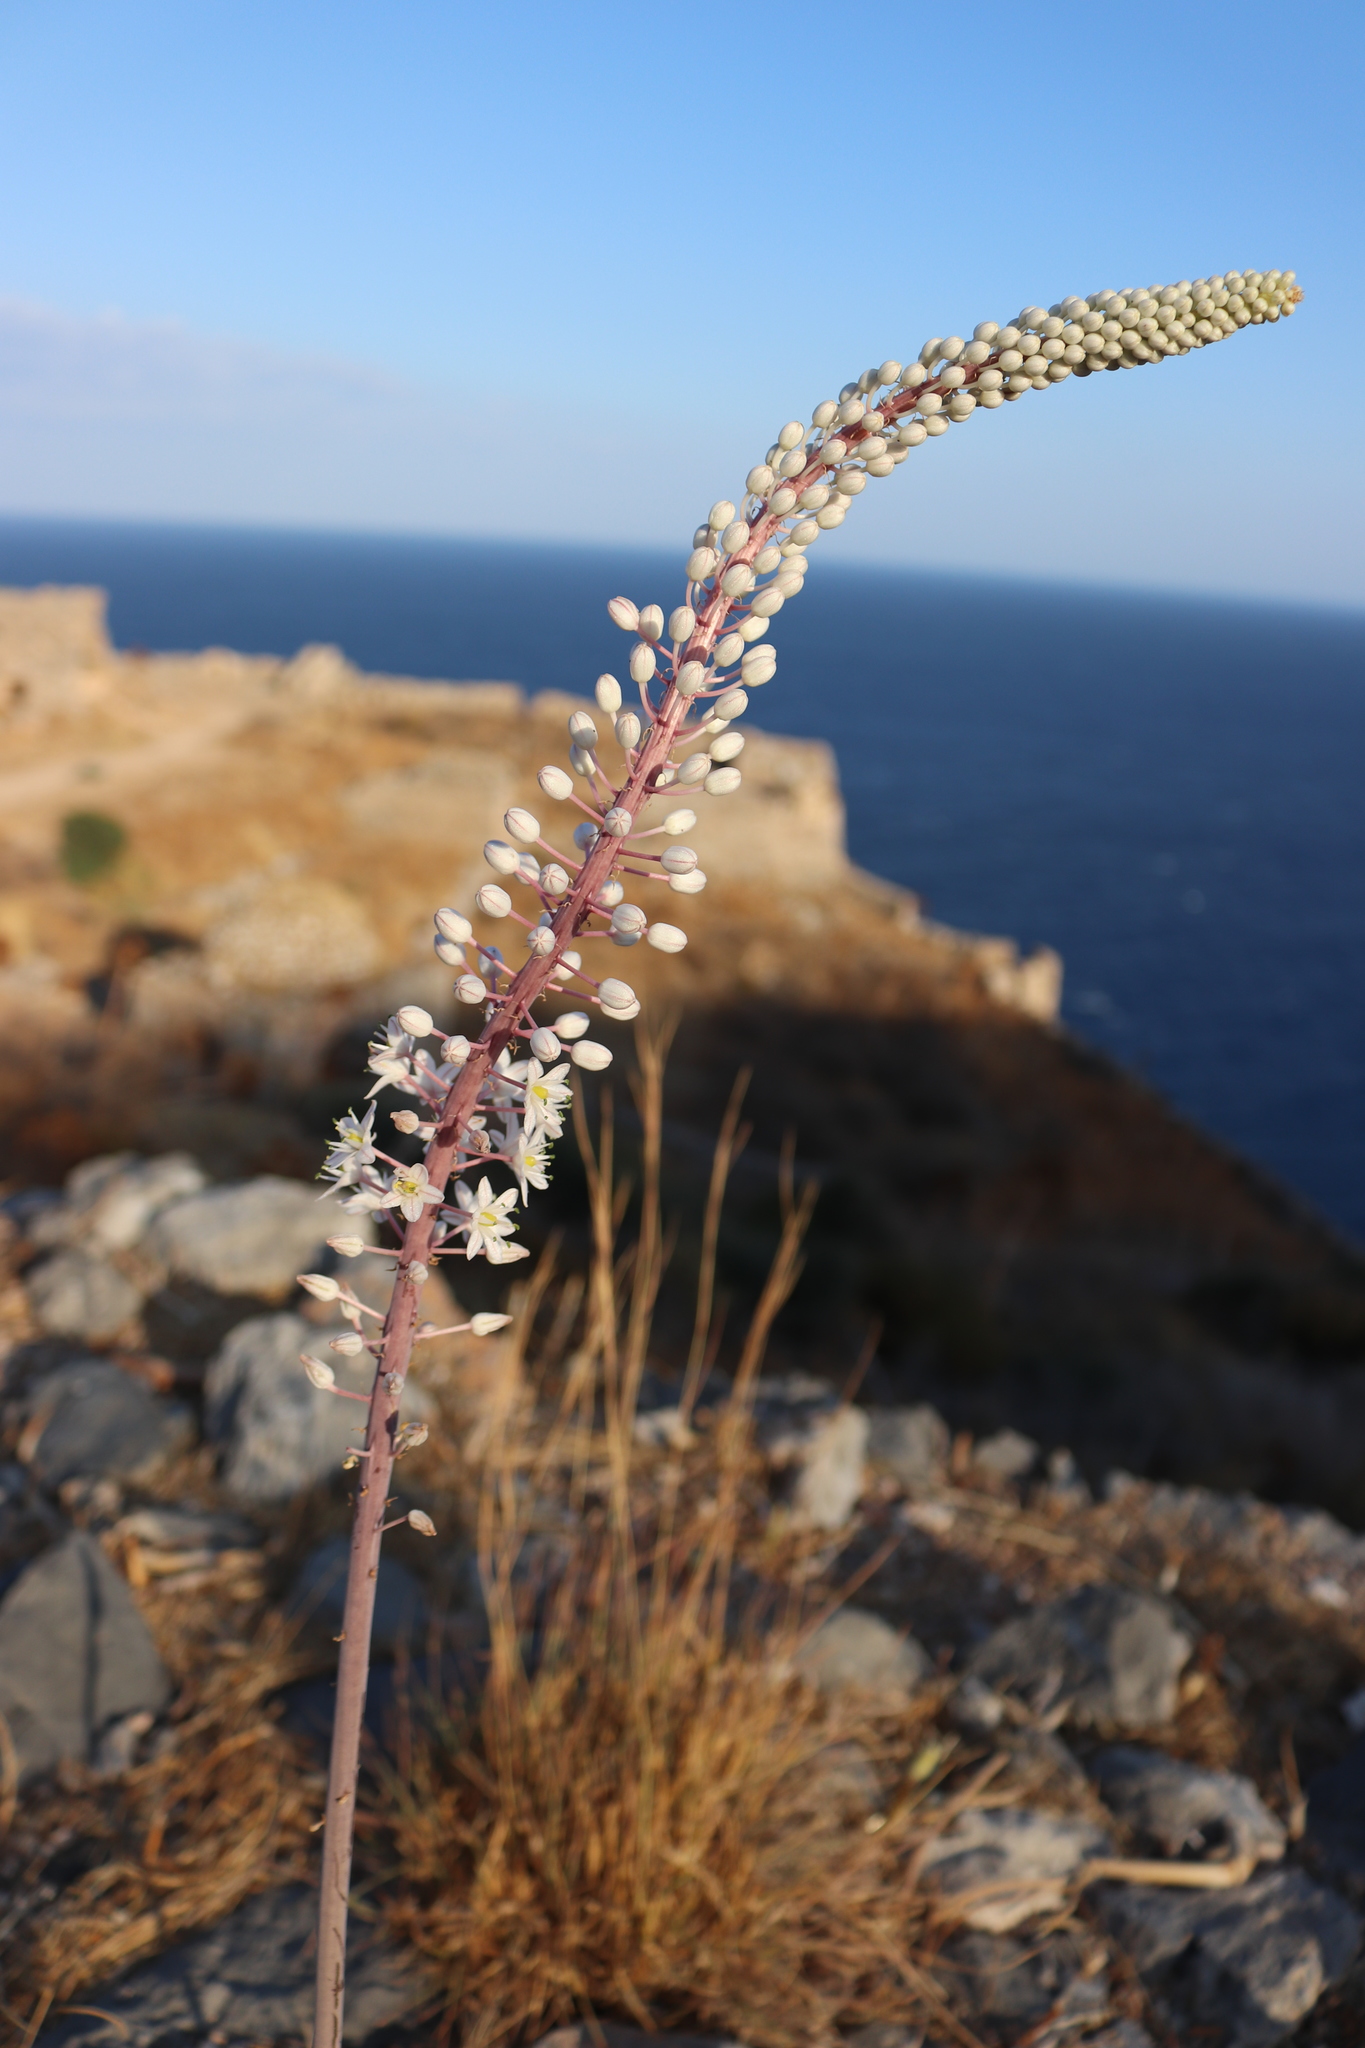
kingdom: Plantae
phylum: Tracheophyta
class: Liliopsida
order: Asparagales
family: Asparagaceae
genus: Drimia
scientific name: Drimia numidica
